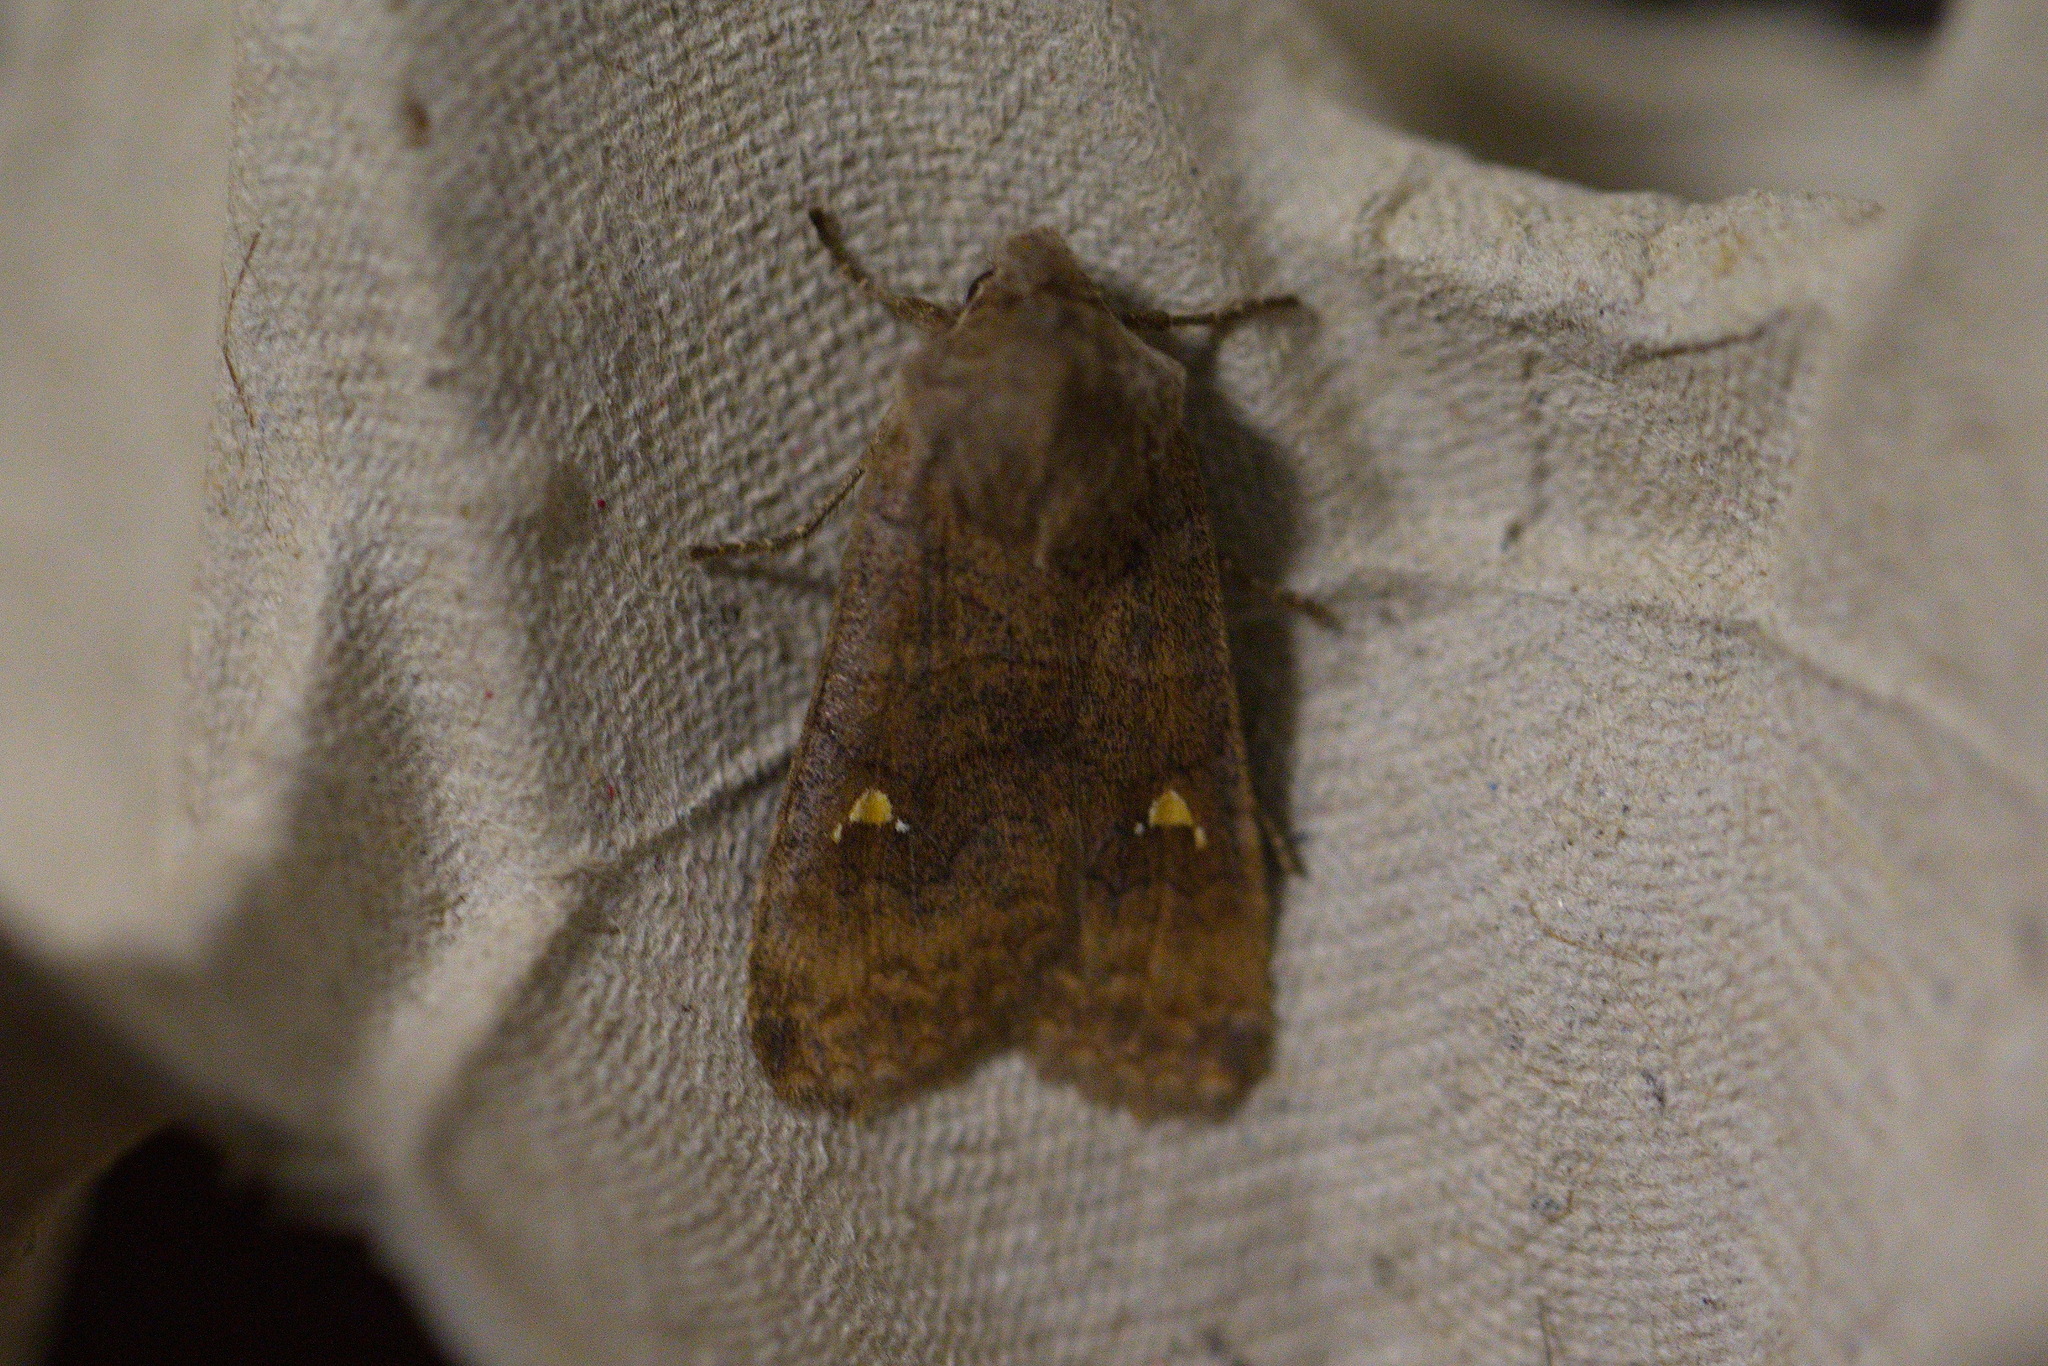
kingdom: Animalia
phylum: Arthropoda
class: Insecta
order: Lepidoptera
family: Noctuidae
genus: Eupsilia
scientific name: Eupsilia transversa
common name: Satellite
